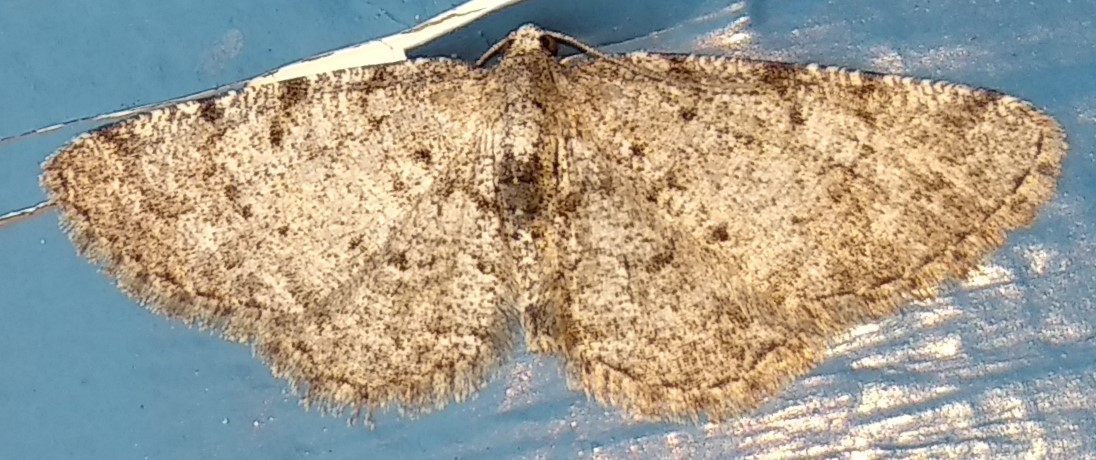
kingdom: Animalia
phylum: Arthropoda
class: Insecta
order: Lepidoptera
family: Geometridae
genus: Aethalura
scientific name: Aethalura intertexta
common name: Four-barred gray
